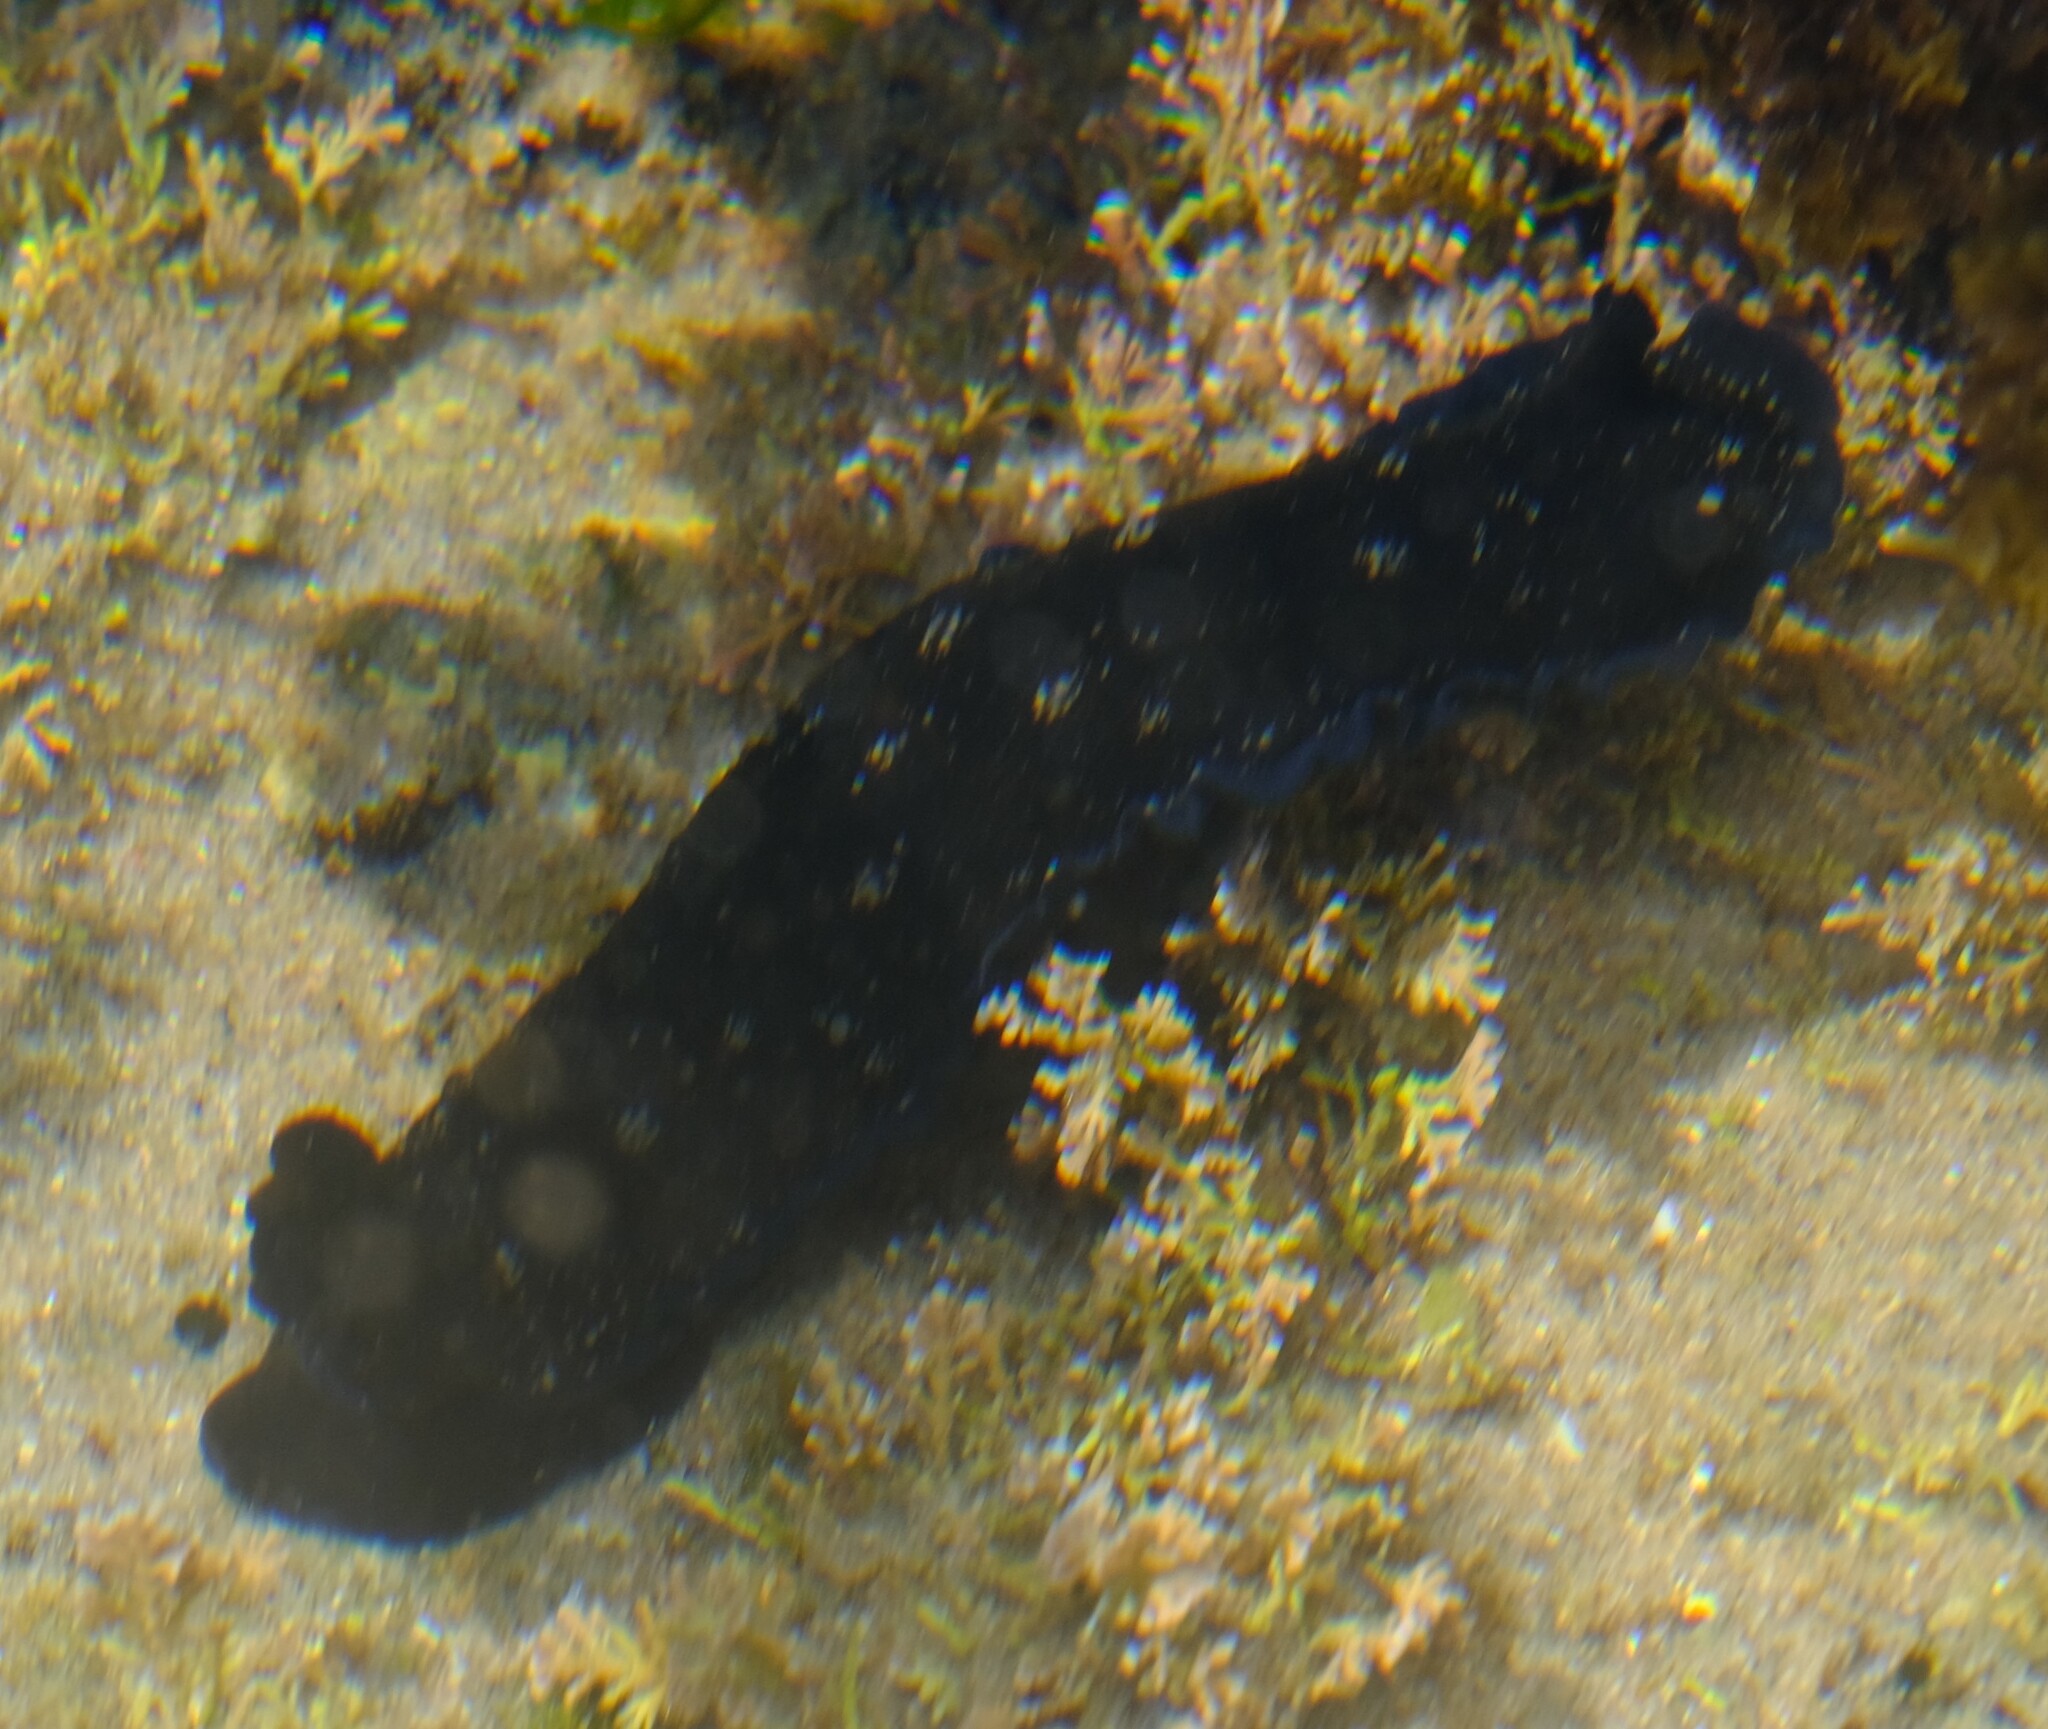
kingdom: Animalia
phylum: Mollusca
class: Gastropoda
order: Nudibranchia
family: Dendrodorididae
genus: Dendrodoris
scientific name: Dendrodoris nigra
